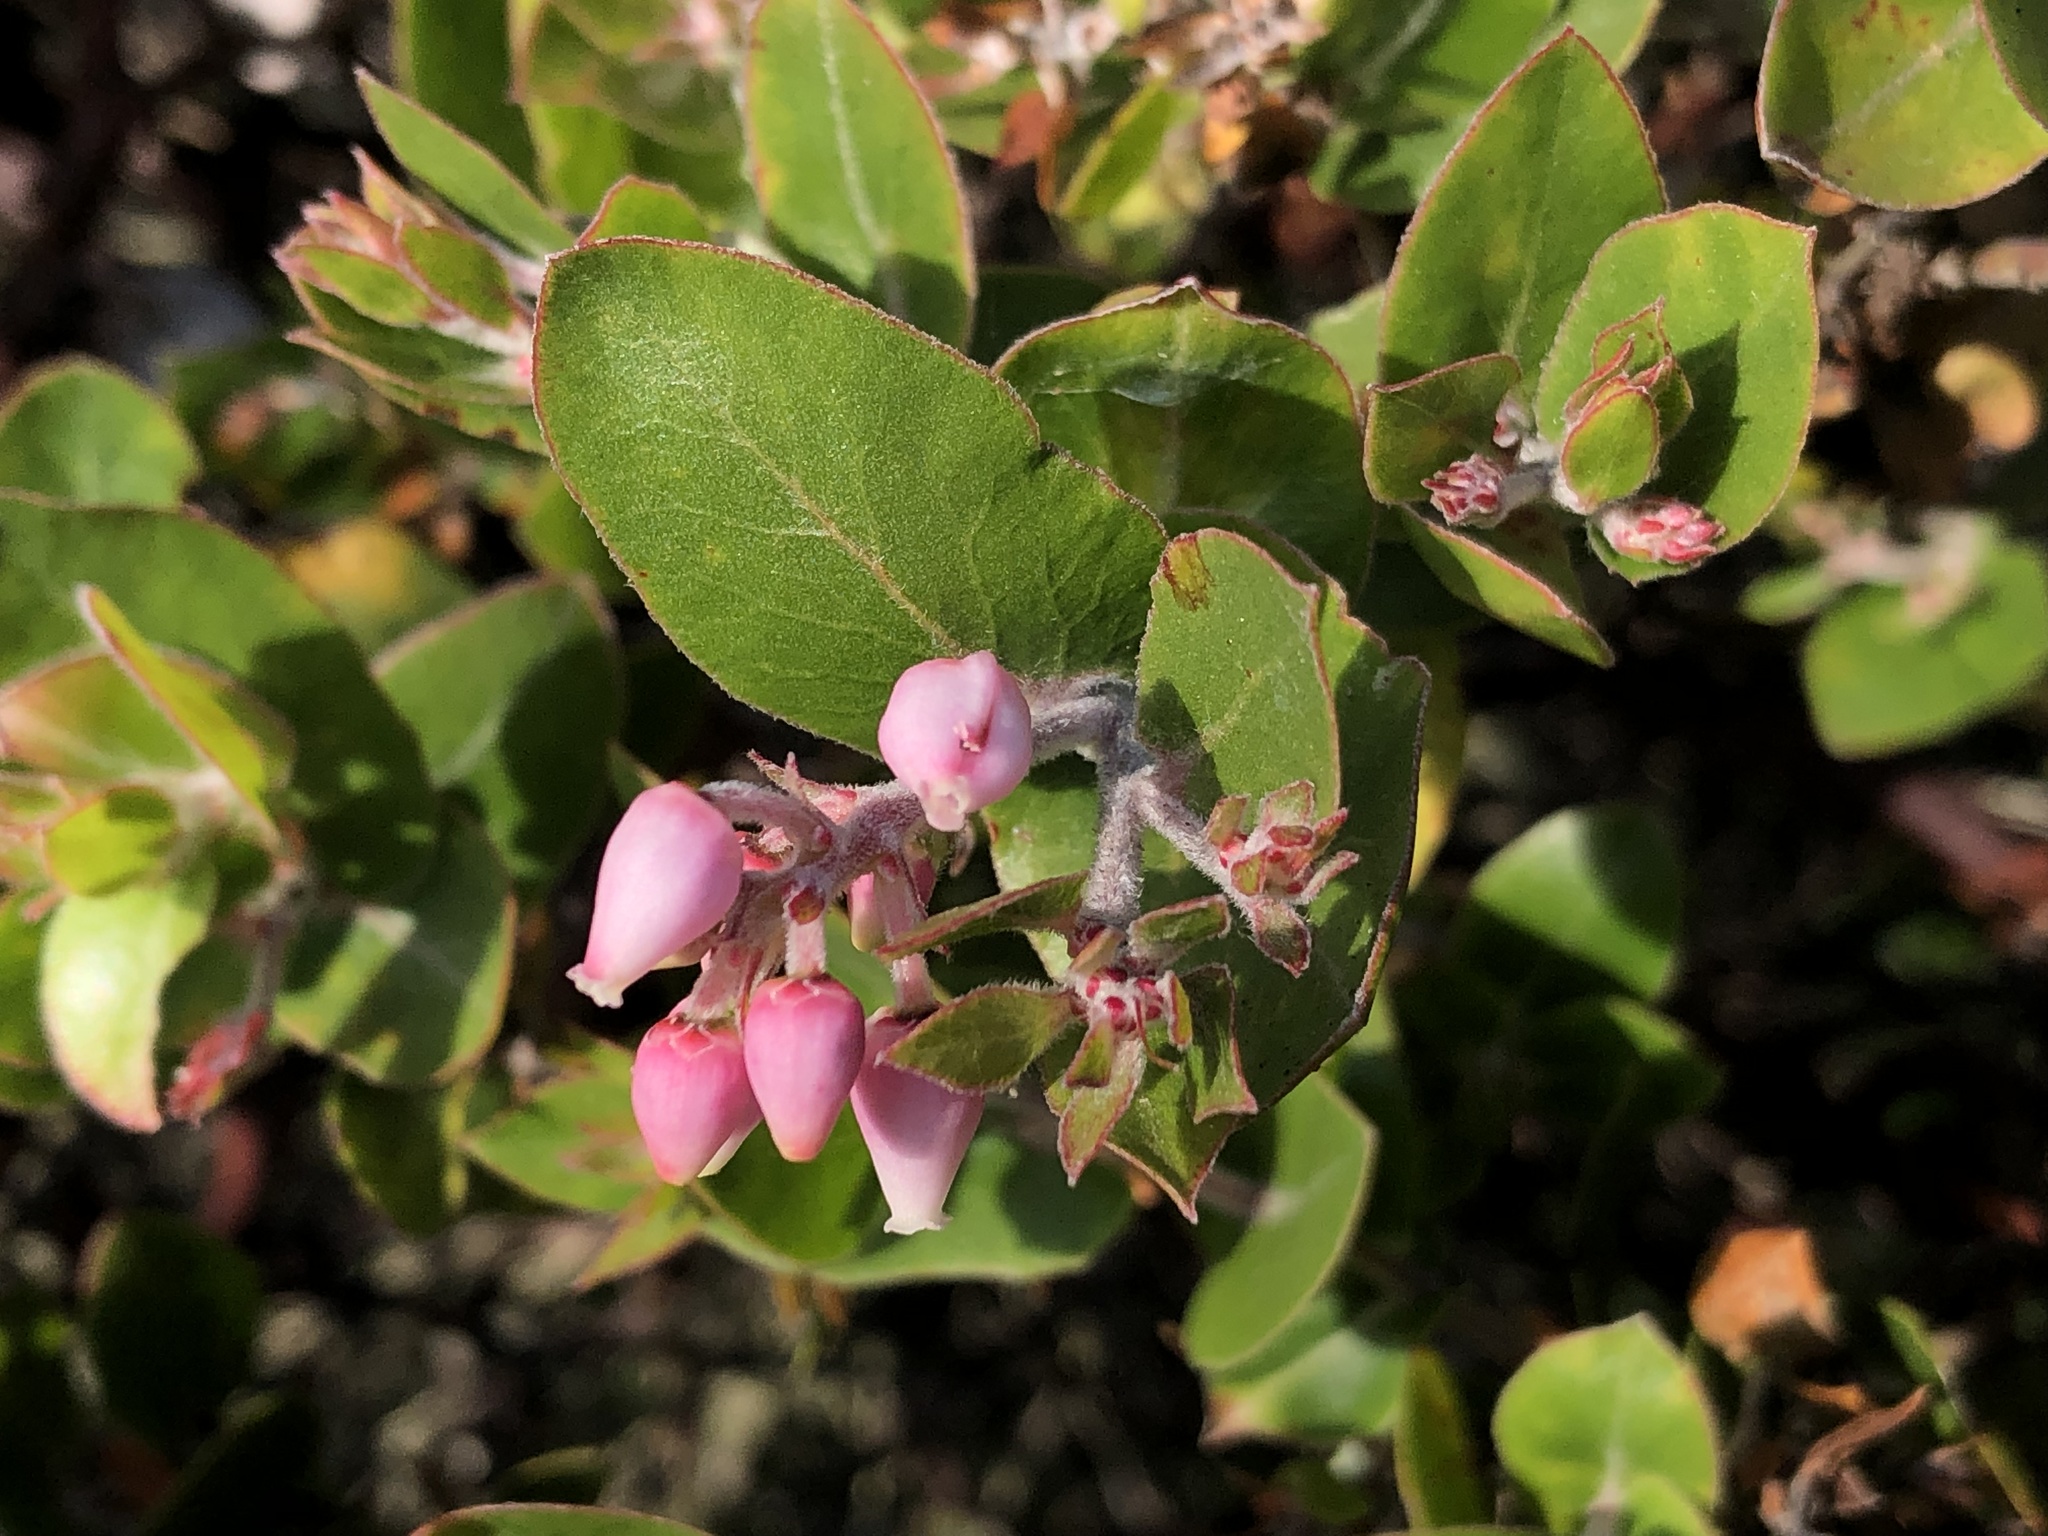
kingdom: Plantae
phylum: Tracheophyta
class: Magnoliopsida
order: Ericales
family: Ericaceae
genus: Arctostaphylos
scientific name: Arctostaphylos osoensis
